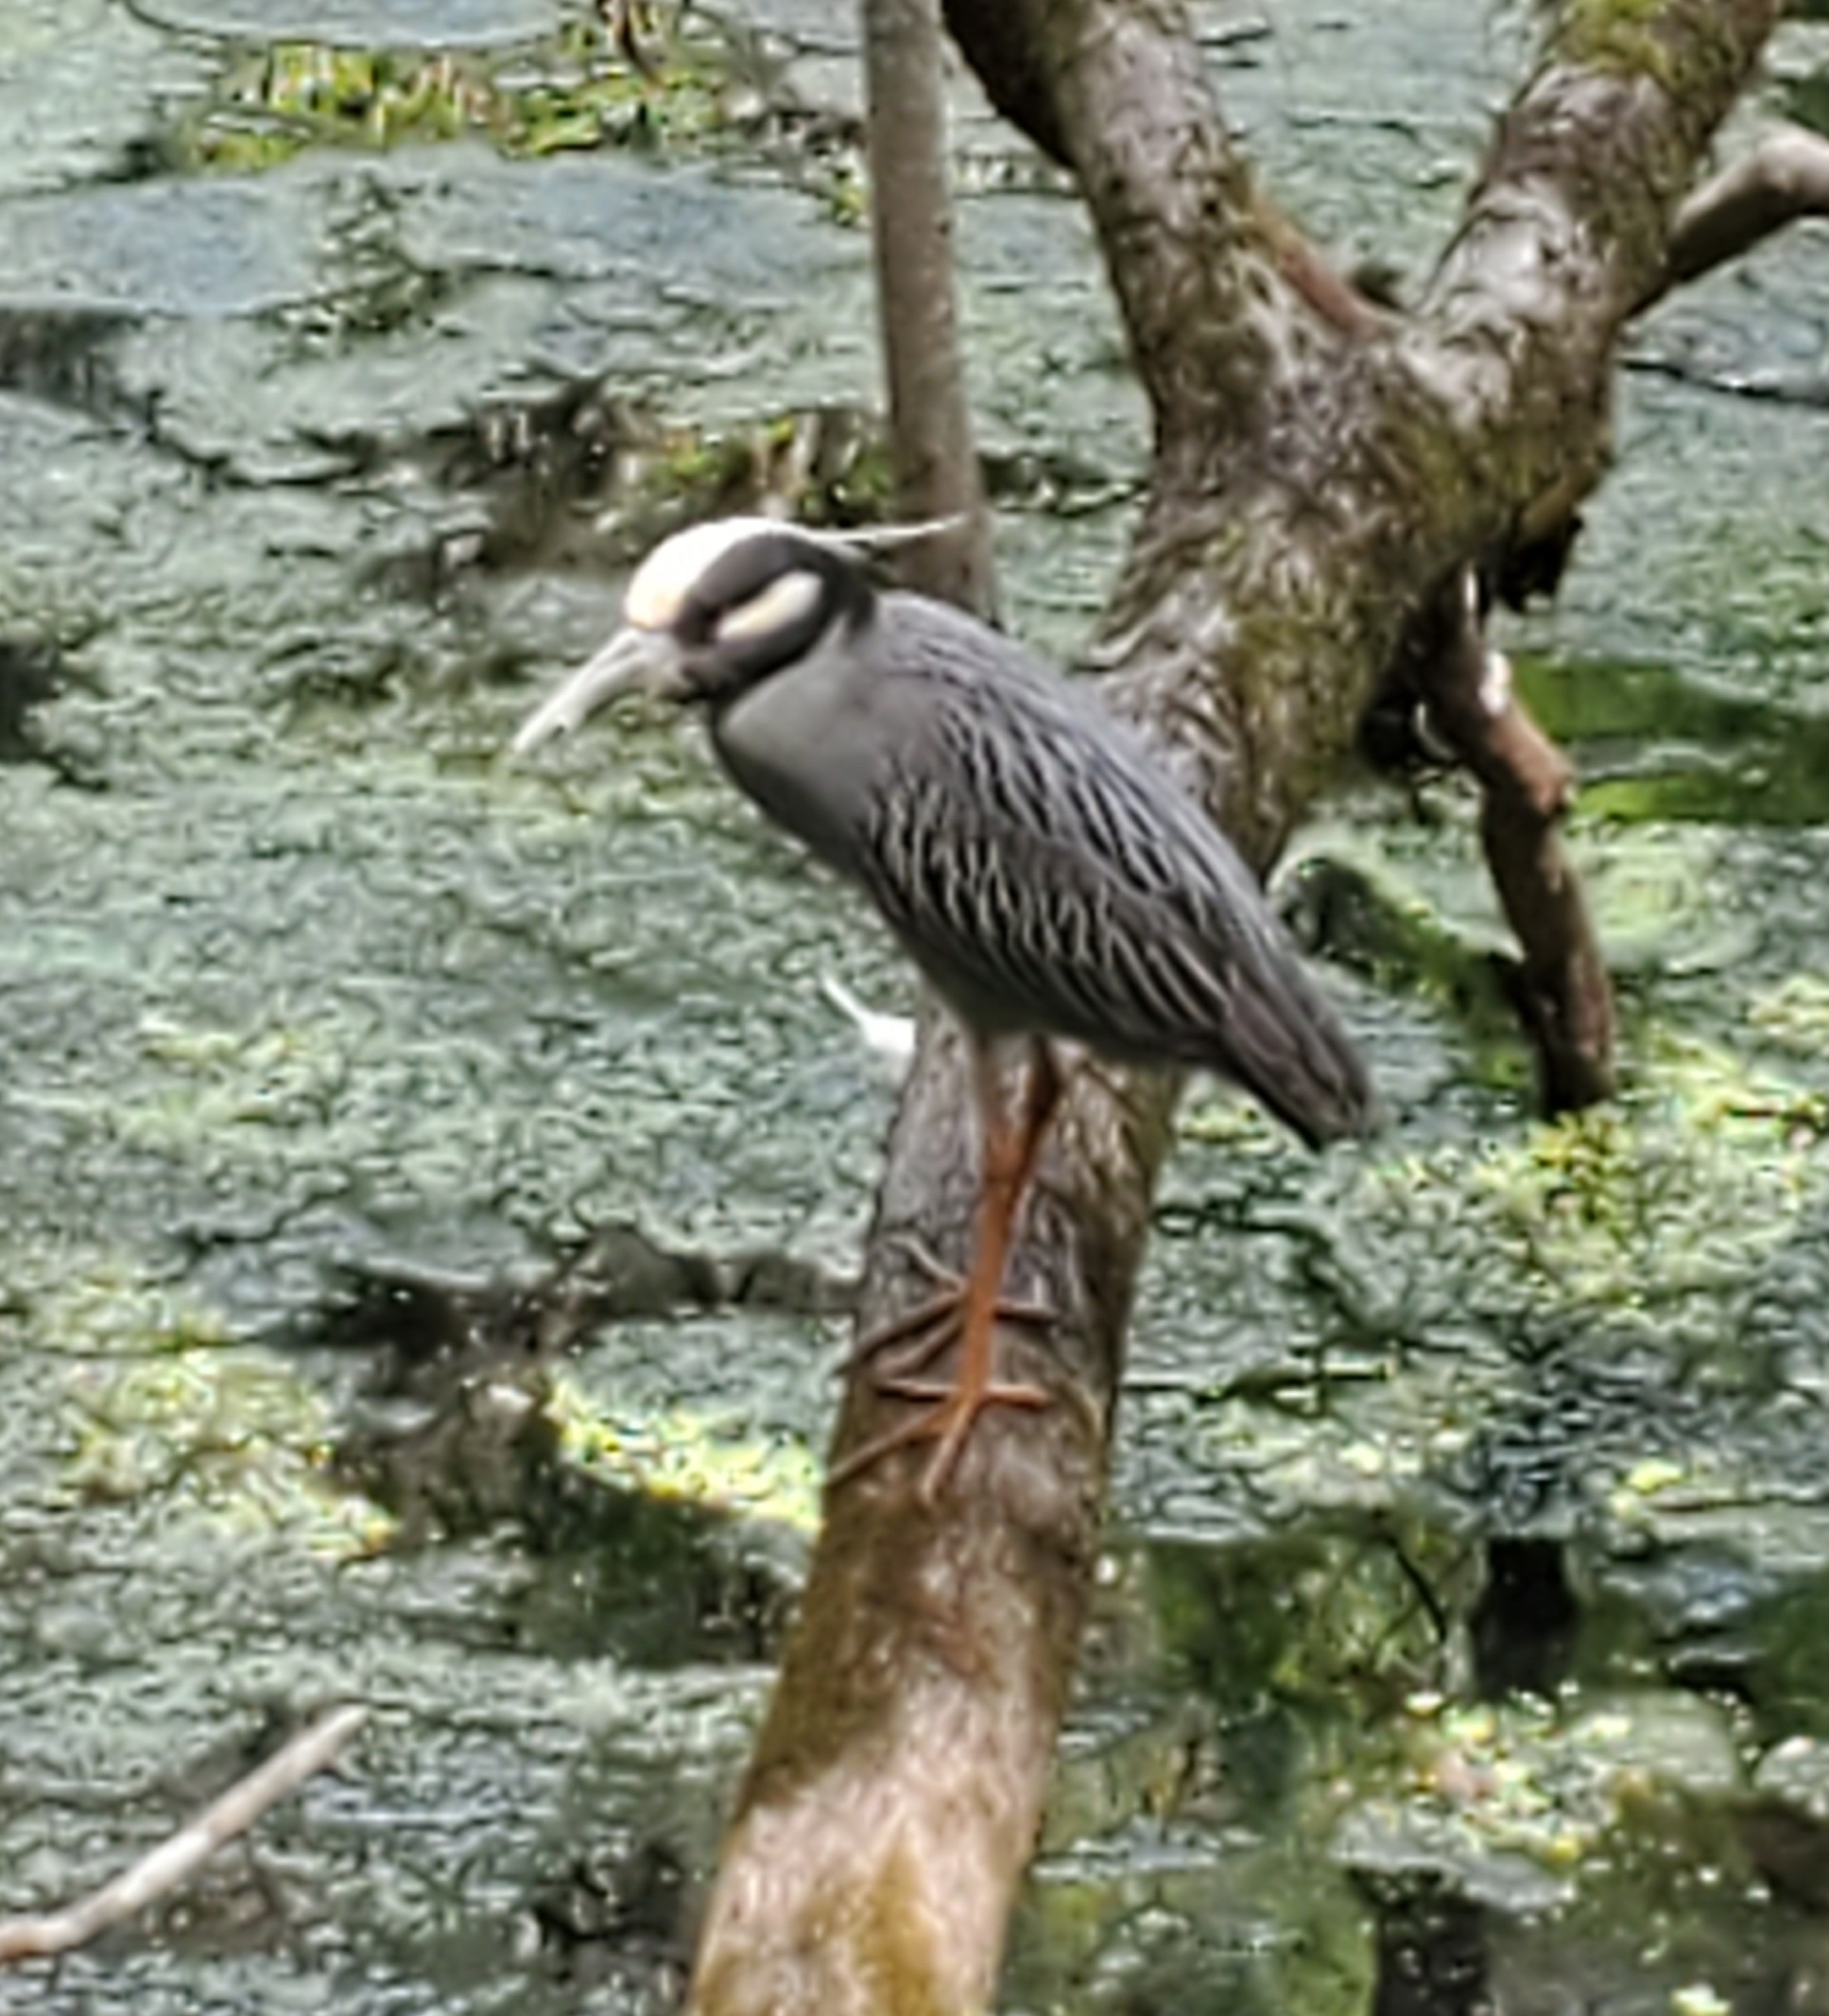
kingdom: Animalia
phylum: Chordata
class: Aves
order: Pelecaniformes
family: Ardeidae
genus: Nyctanassa
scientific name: Nyctanassa violacea
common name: Yellow-crowned night heron
